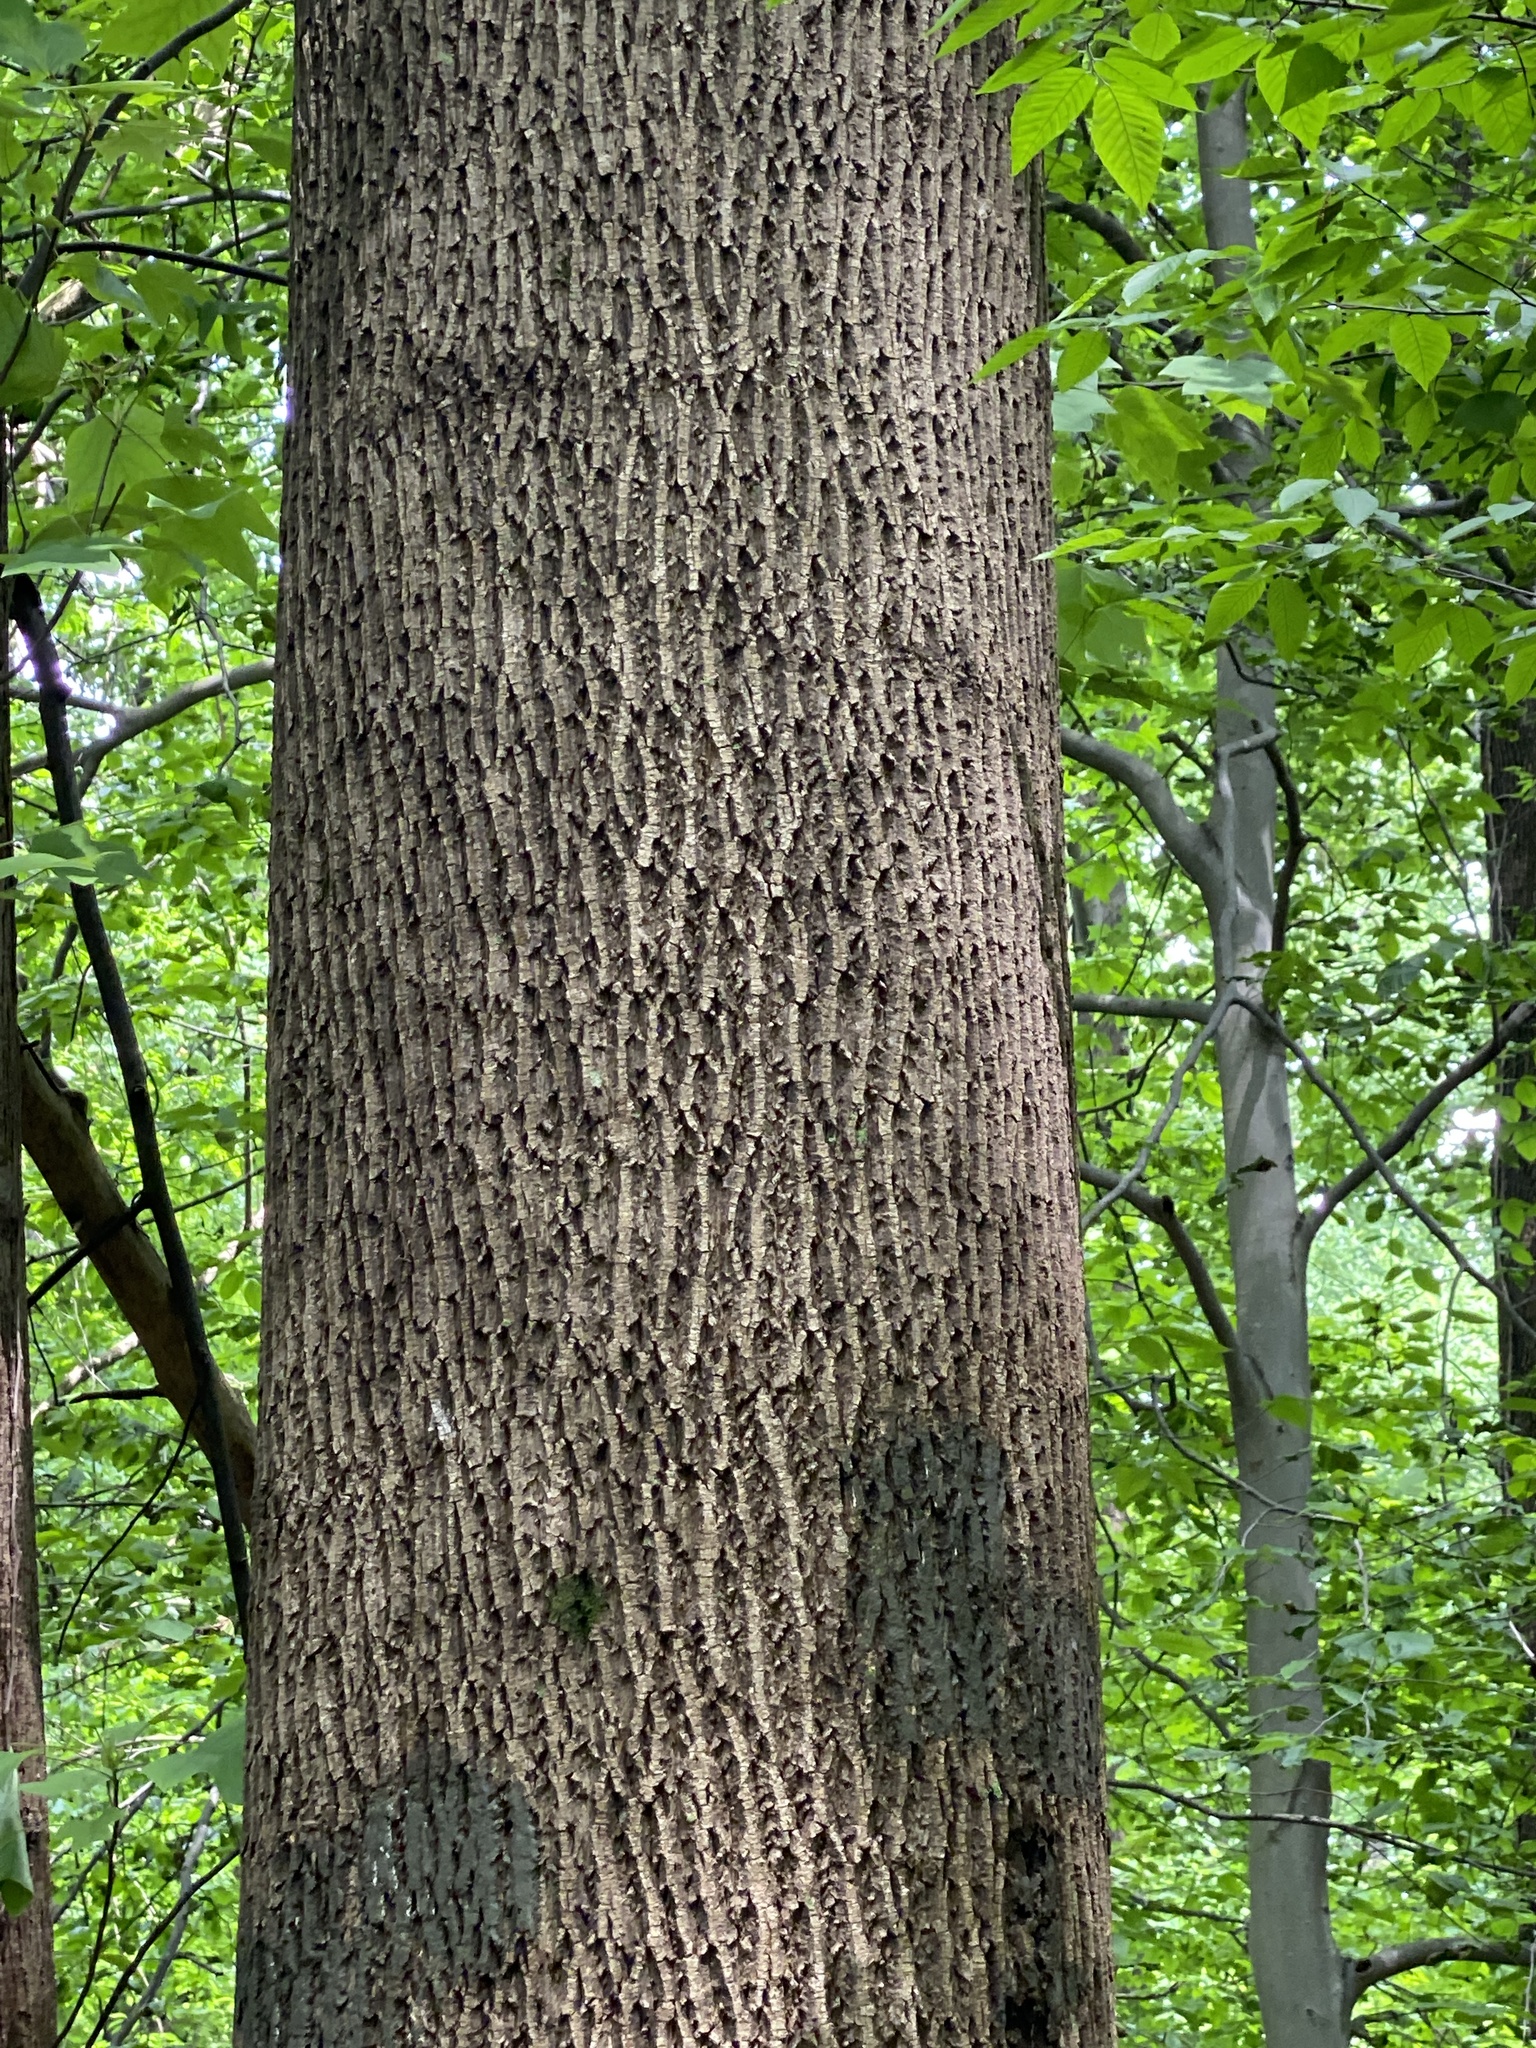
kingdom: Plantae
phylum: Tracheophyta
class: Magnoliopsida
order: Magnoliales
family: Magnoliaceae
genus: Liriodendron
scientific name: Liriodendron tulipifera
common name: Tulip tree
